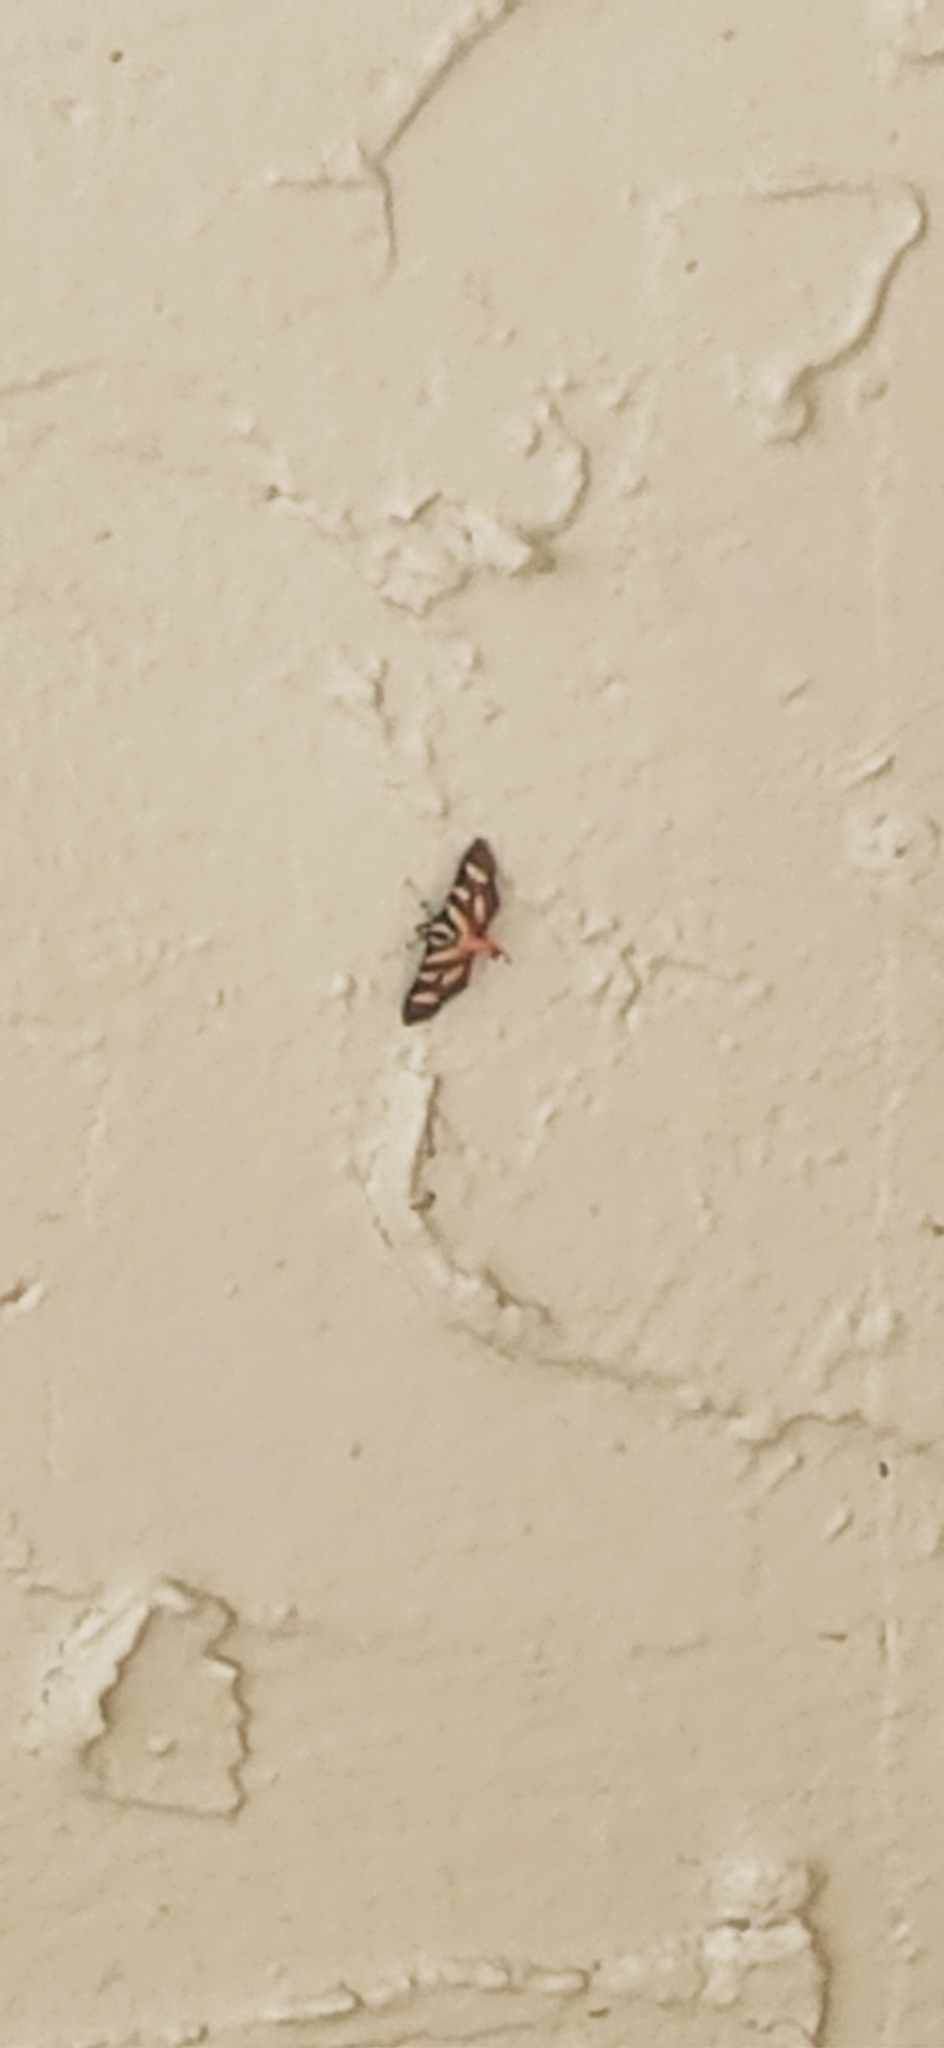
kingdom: Animalia
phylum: Arthropoda
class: Insecta
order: Lepidoptera
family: Crambidae
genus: Syngamia
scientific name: Syngamia florella
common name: Orange-spotted flower moth
